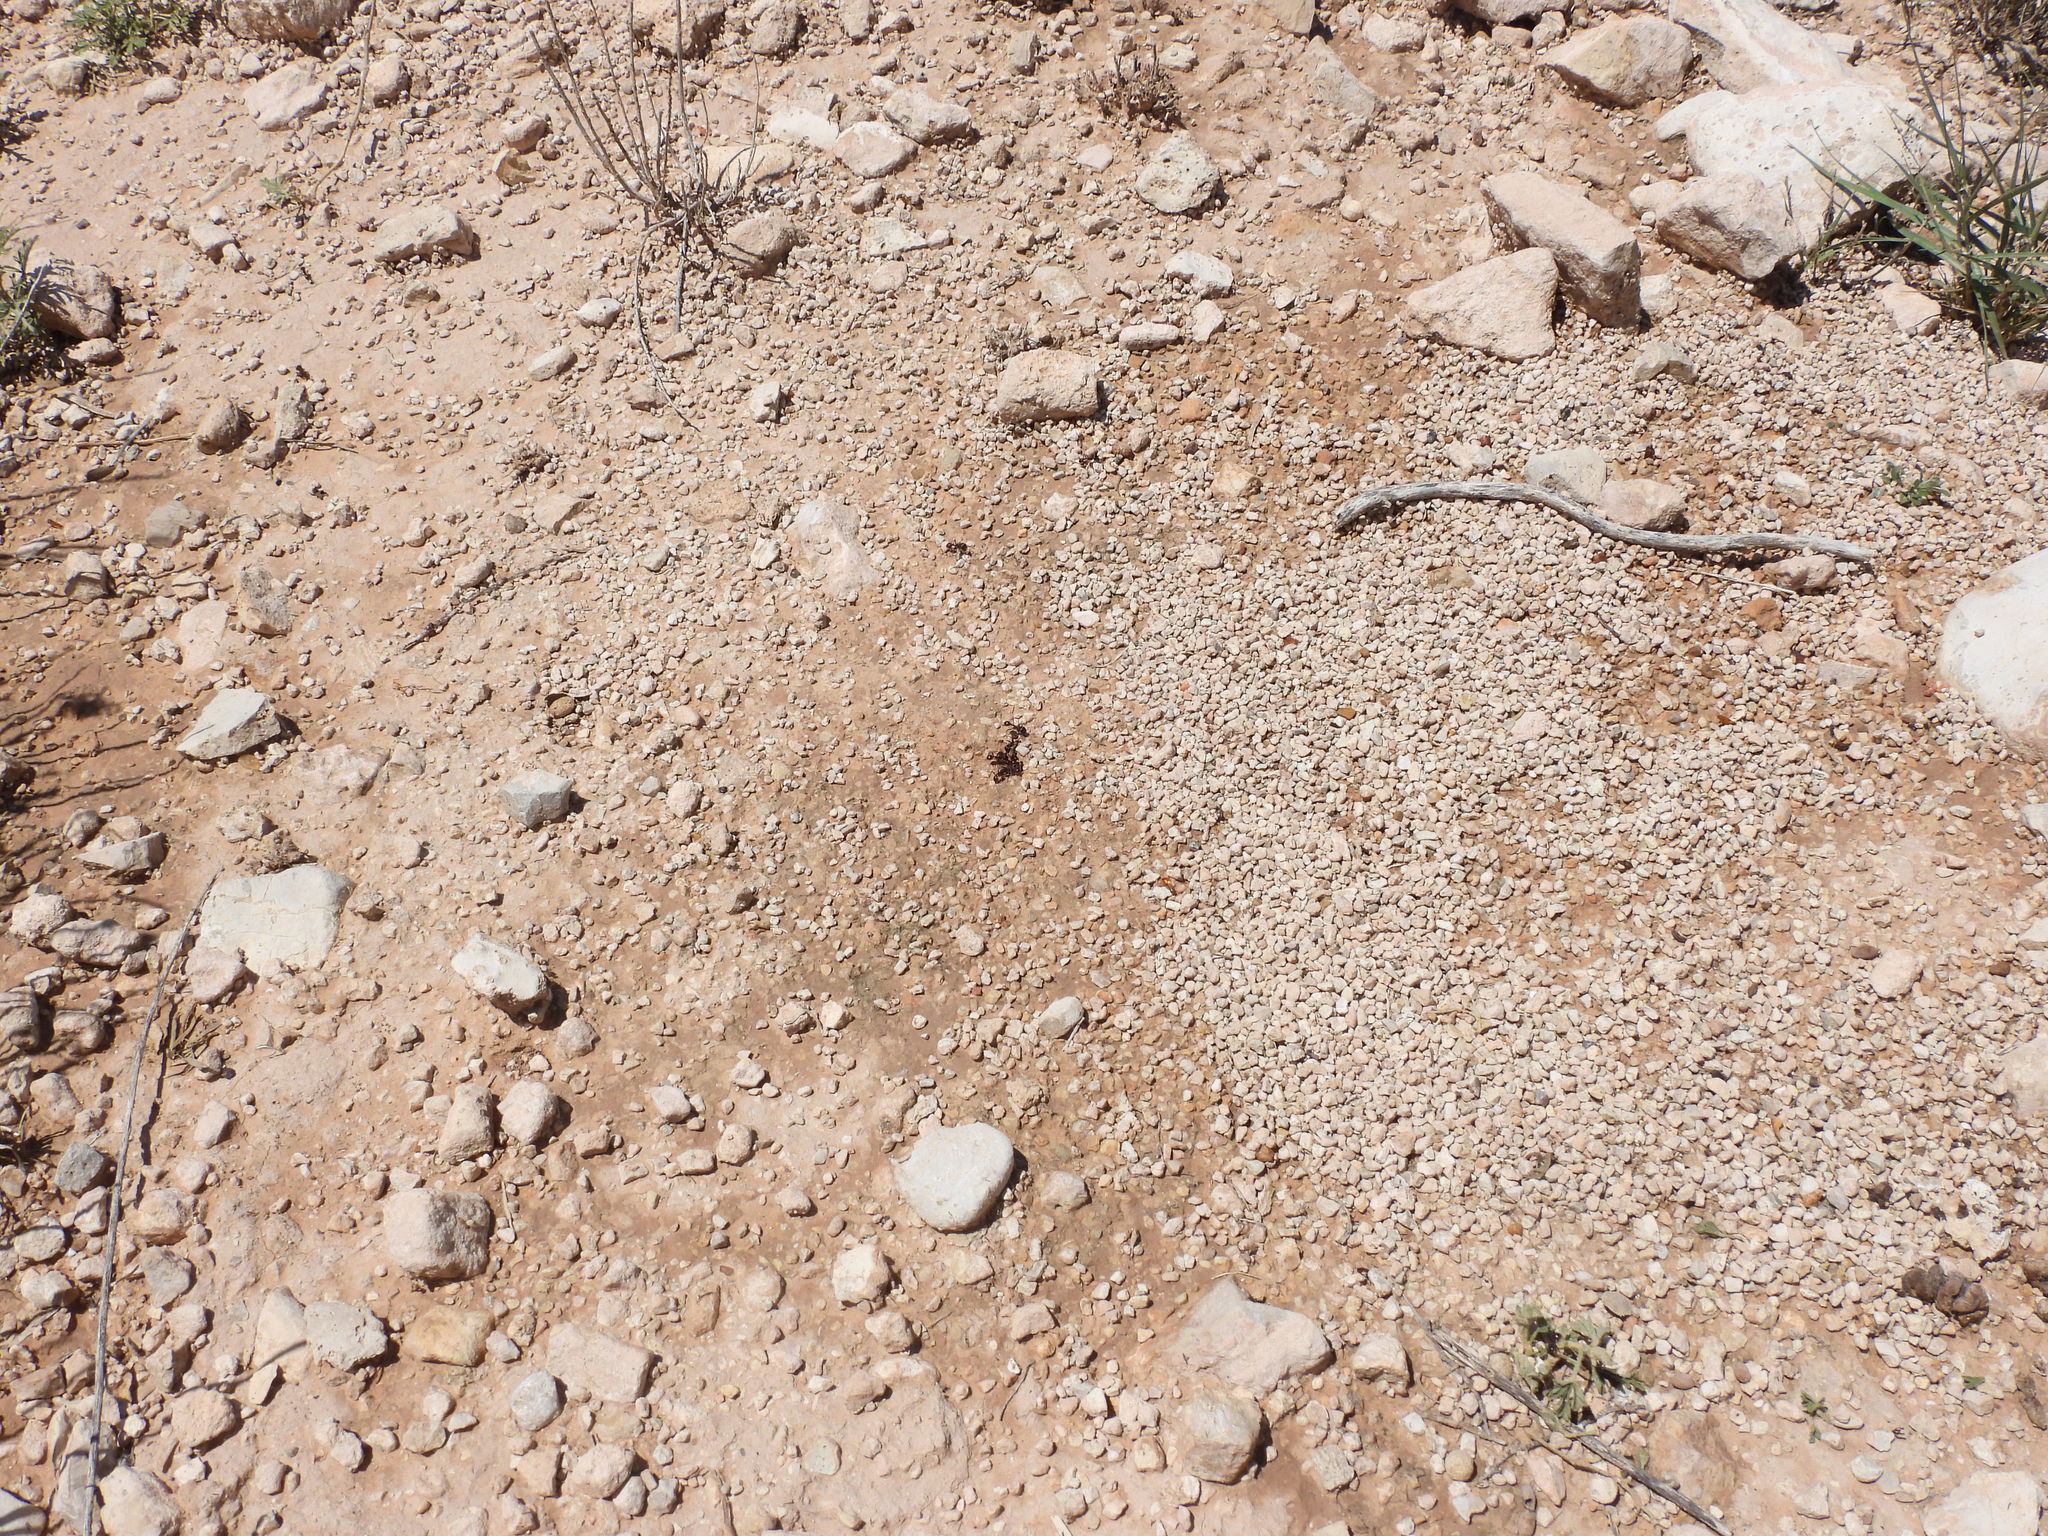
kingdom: Animalia
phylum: Arthropoda
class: Insecta
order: Hymenoptera
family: Formicidae
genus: Pogonomyrmex
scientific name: Pogonomyrmex rugosus
